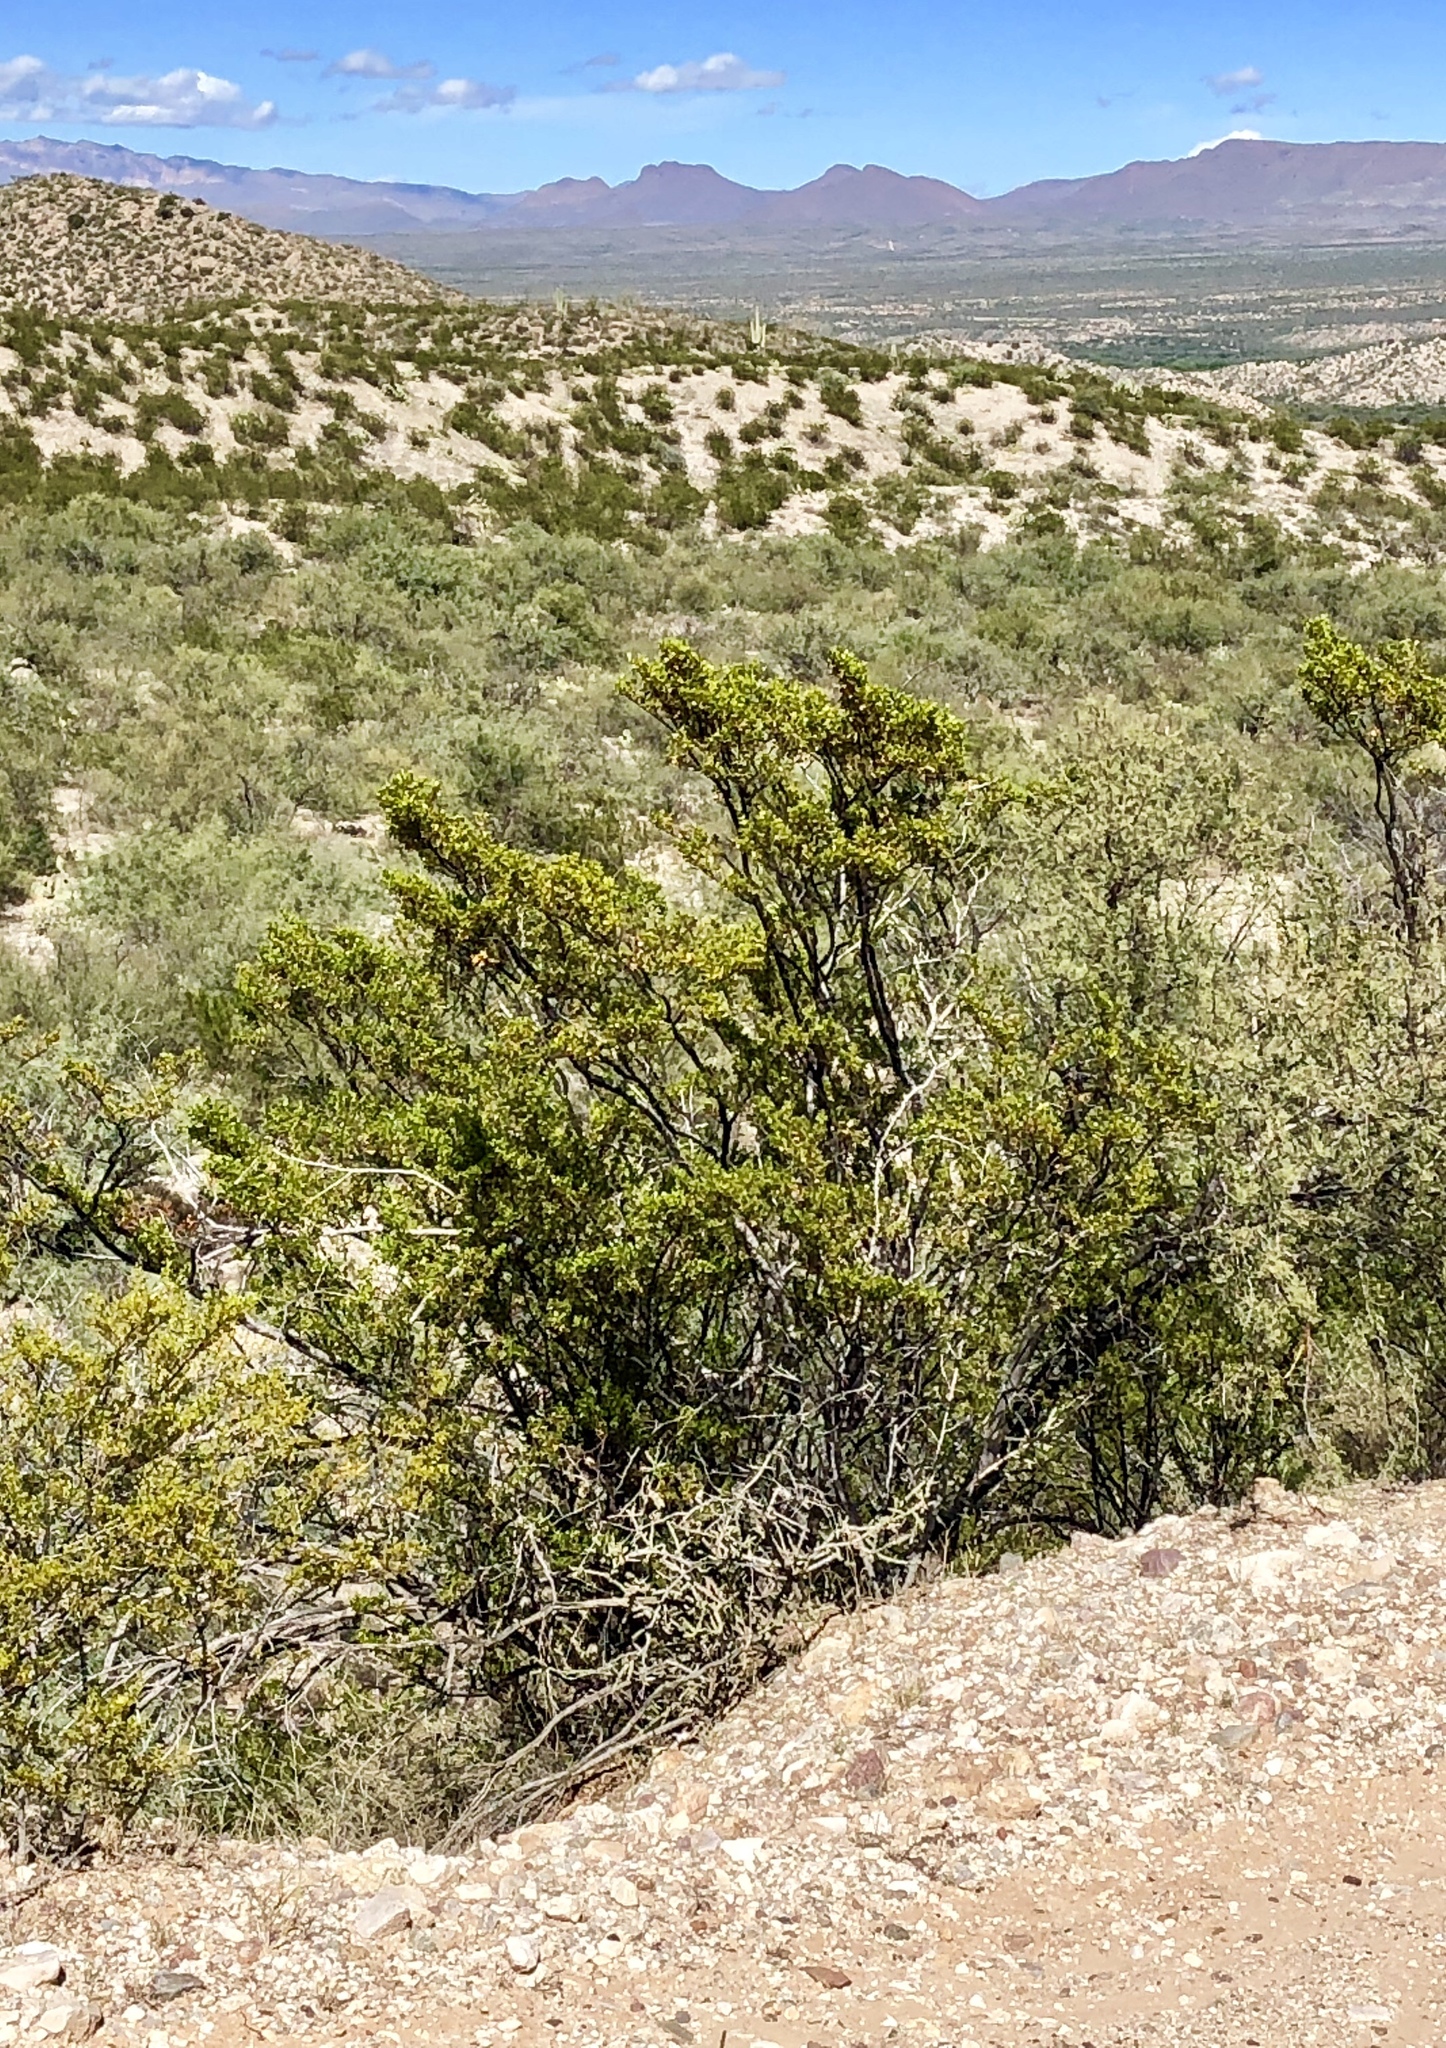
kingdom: Plantae
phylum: Tracheophyta
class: Magnoliopsida
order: Zygophyllales
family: Zygophyllaceae
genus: Larrea
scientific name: Larrea tridentata
